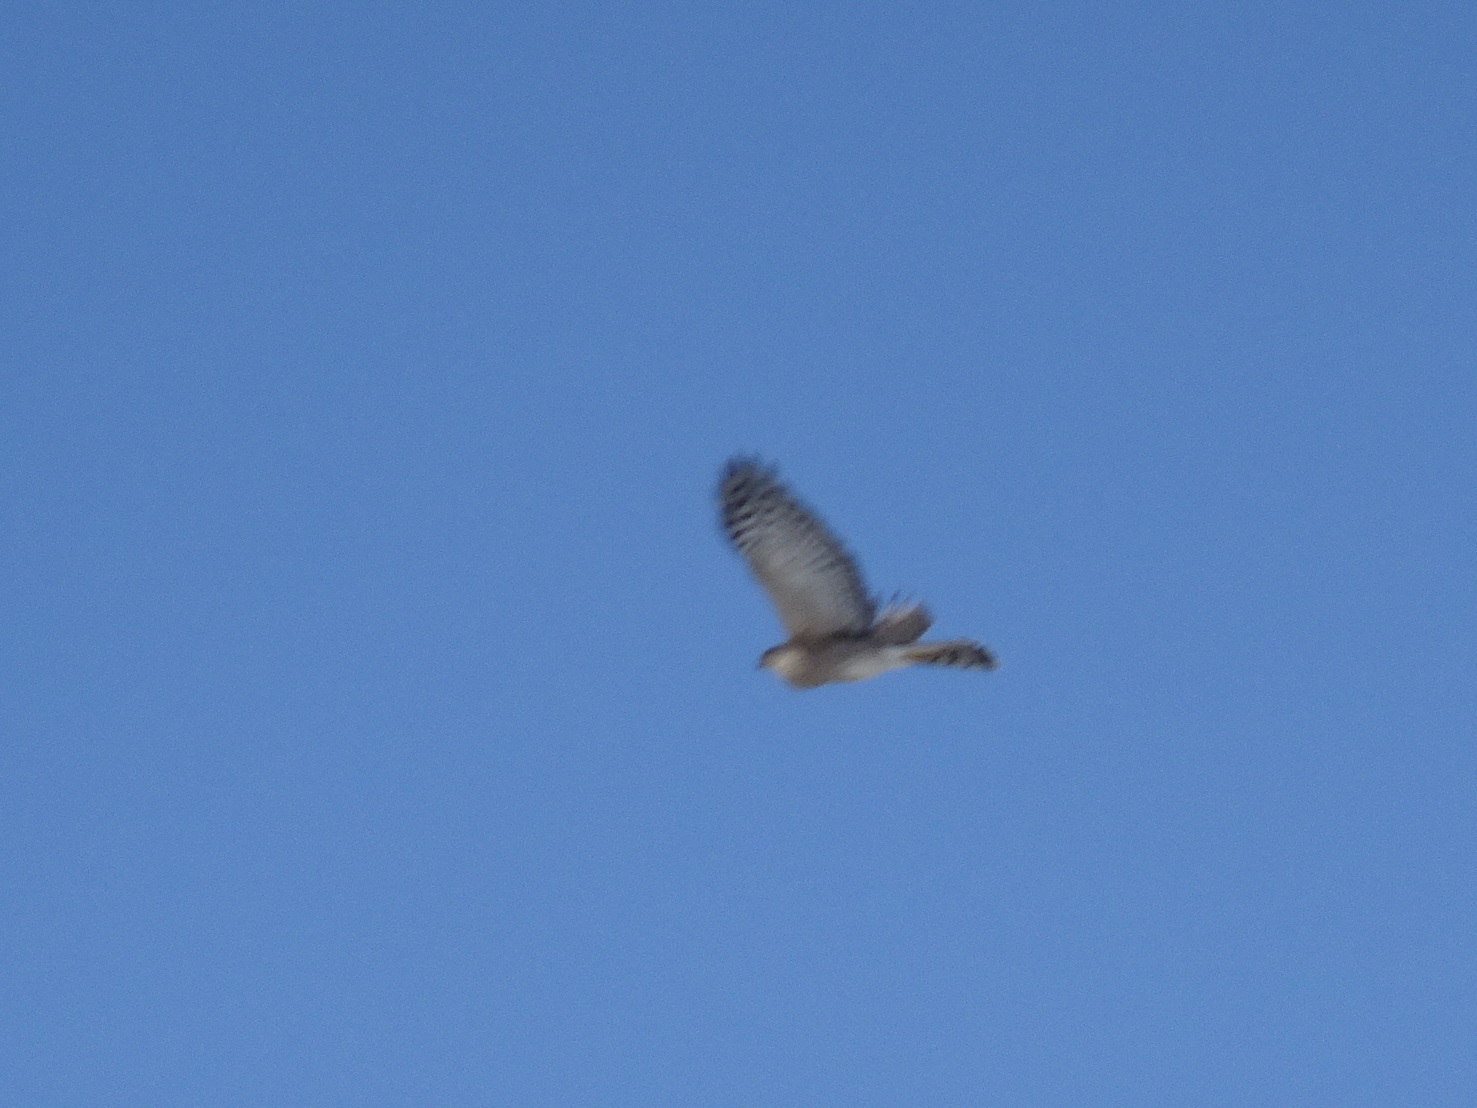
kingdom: Animalia
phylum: Chordata
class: Aves
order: Accipitriformes
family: Accipitridae
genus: Accipiter
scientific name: Accipiter striatus
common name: Sharp-shinned hawk
